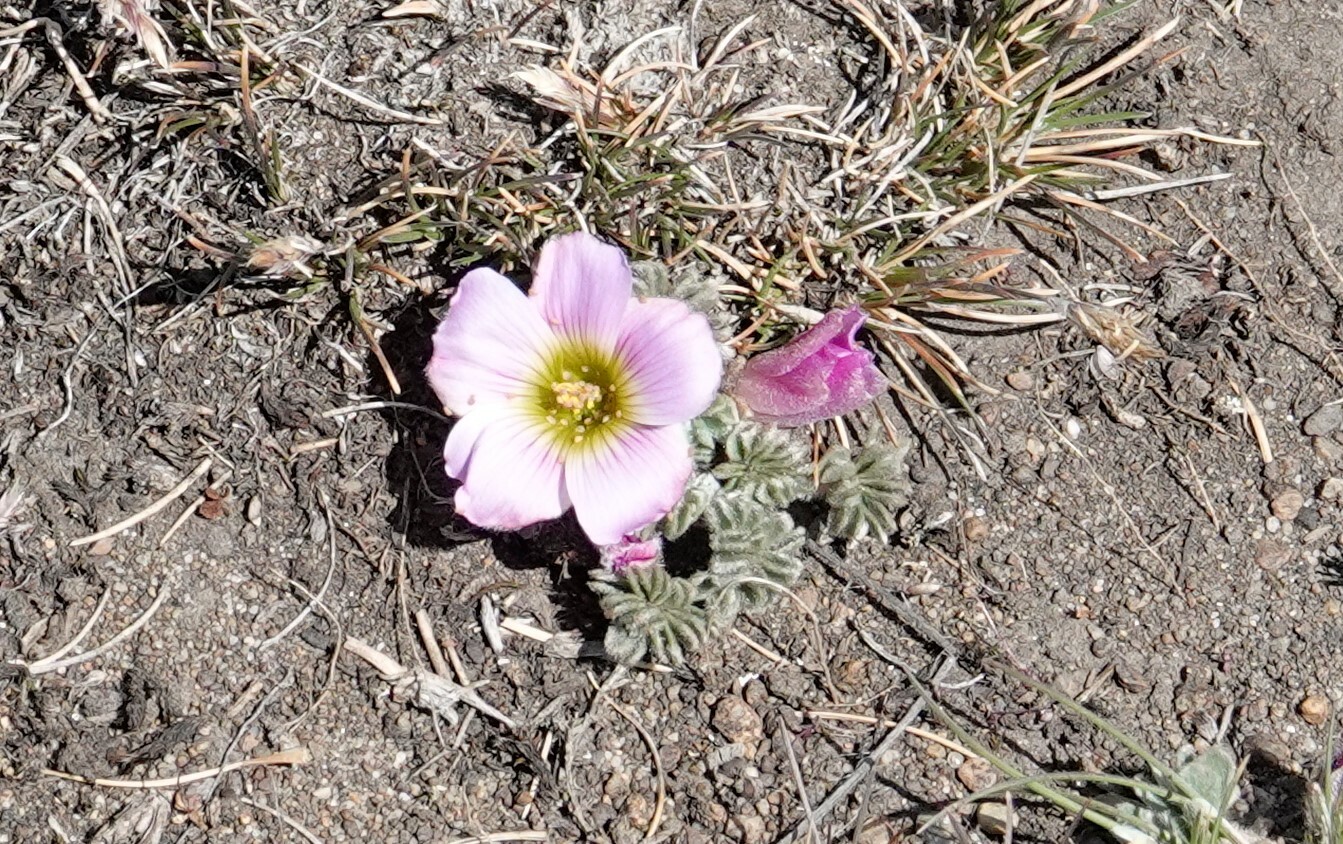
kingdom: Plantae
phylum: Tracheophyta
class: Magnoliopsida
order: Oxalidales
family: Oxalidaceae
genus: Oxalis
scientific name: Oxalis enneaphylla
